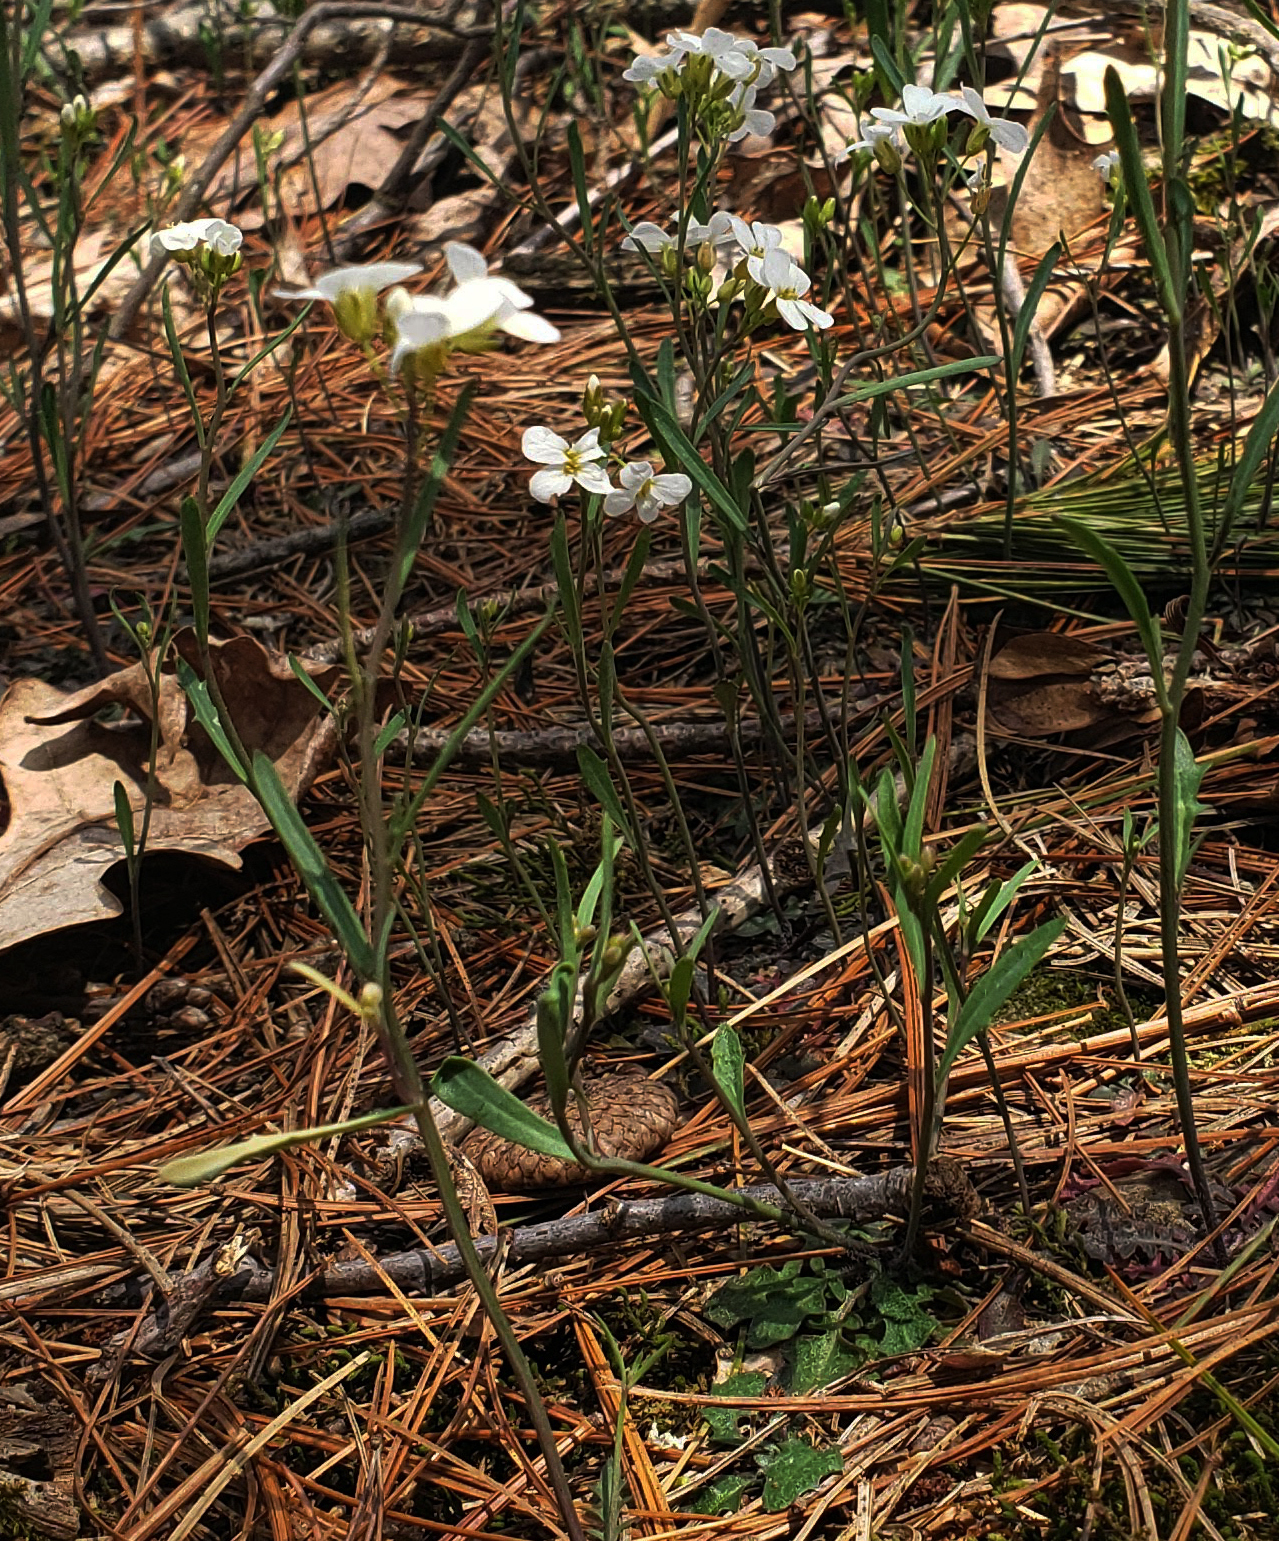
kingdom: Plantae
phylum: Tracheophyta
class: Magnoliopsida
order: Brassicales
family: Brassicaceae
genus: Arabidopsis
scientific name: Arabidopsis lyrata
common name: Lyrate rockcress
